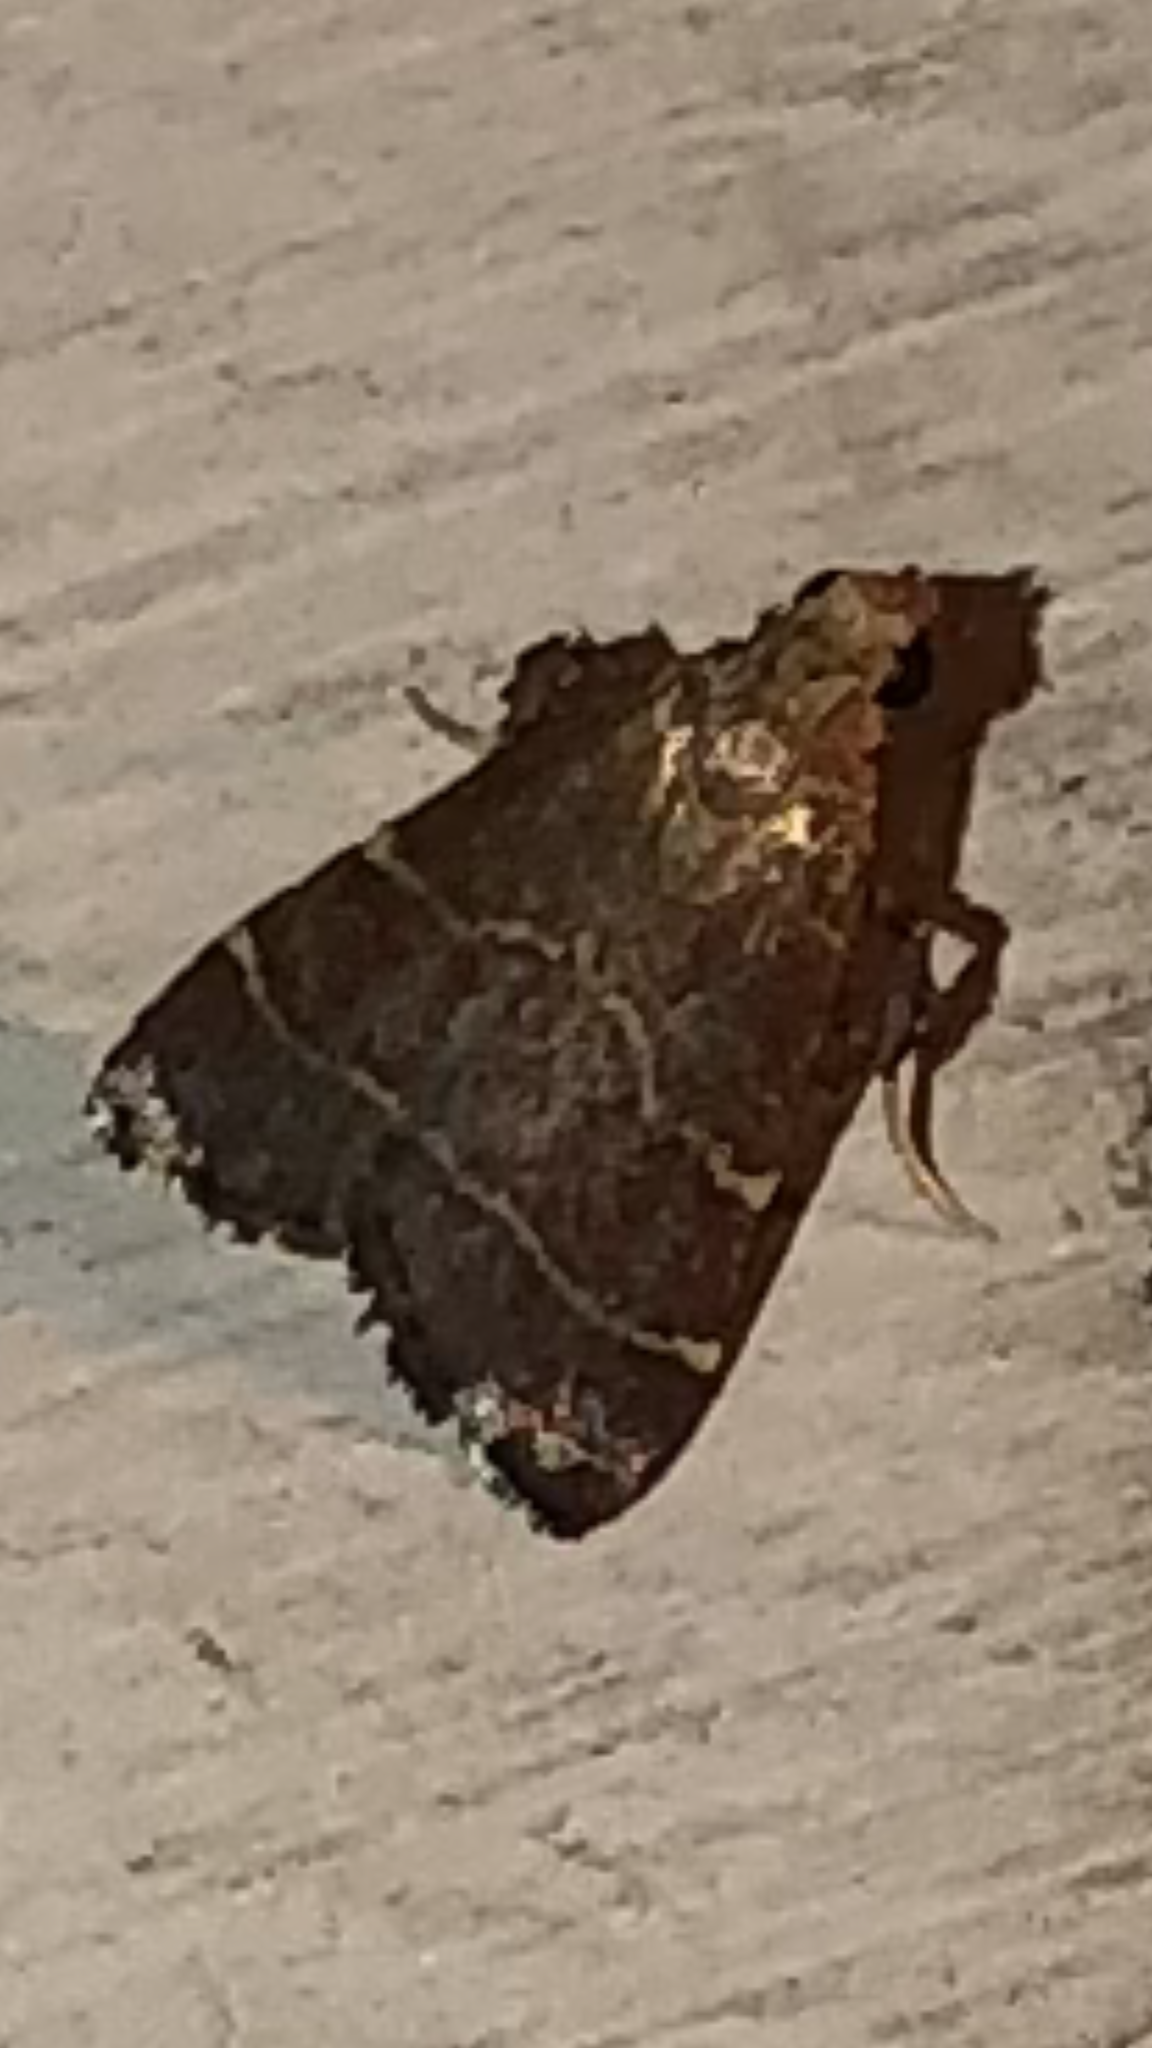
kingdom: Animalia
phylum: Arthropoda
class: Insecta
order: Lepidoptera
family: Pyralidae
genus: Arta
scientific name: Arta statalis
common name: Posturing arta moth
